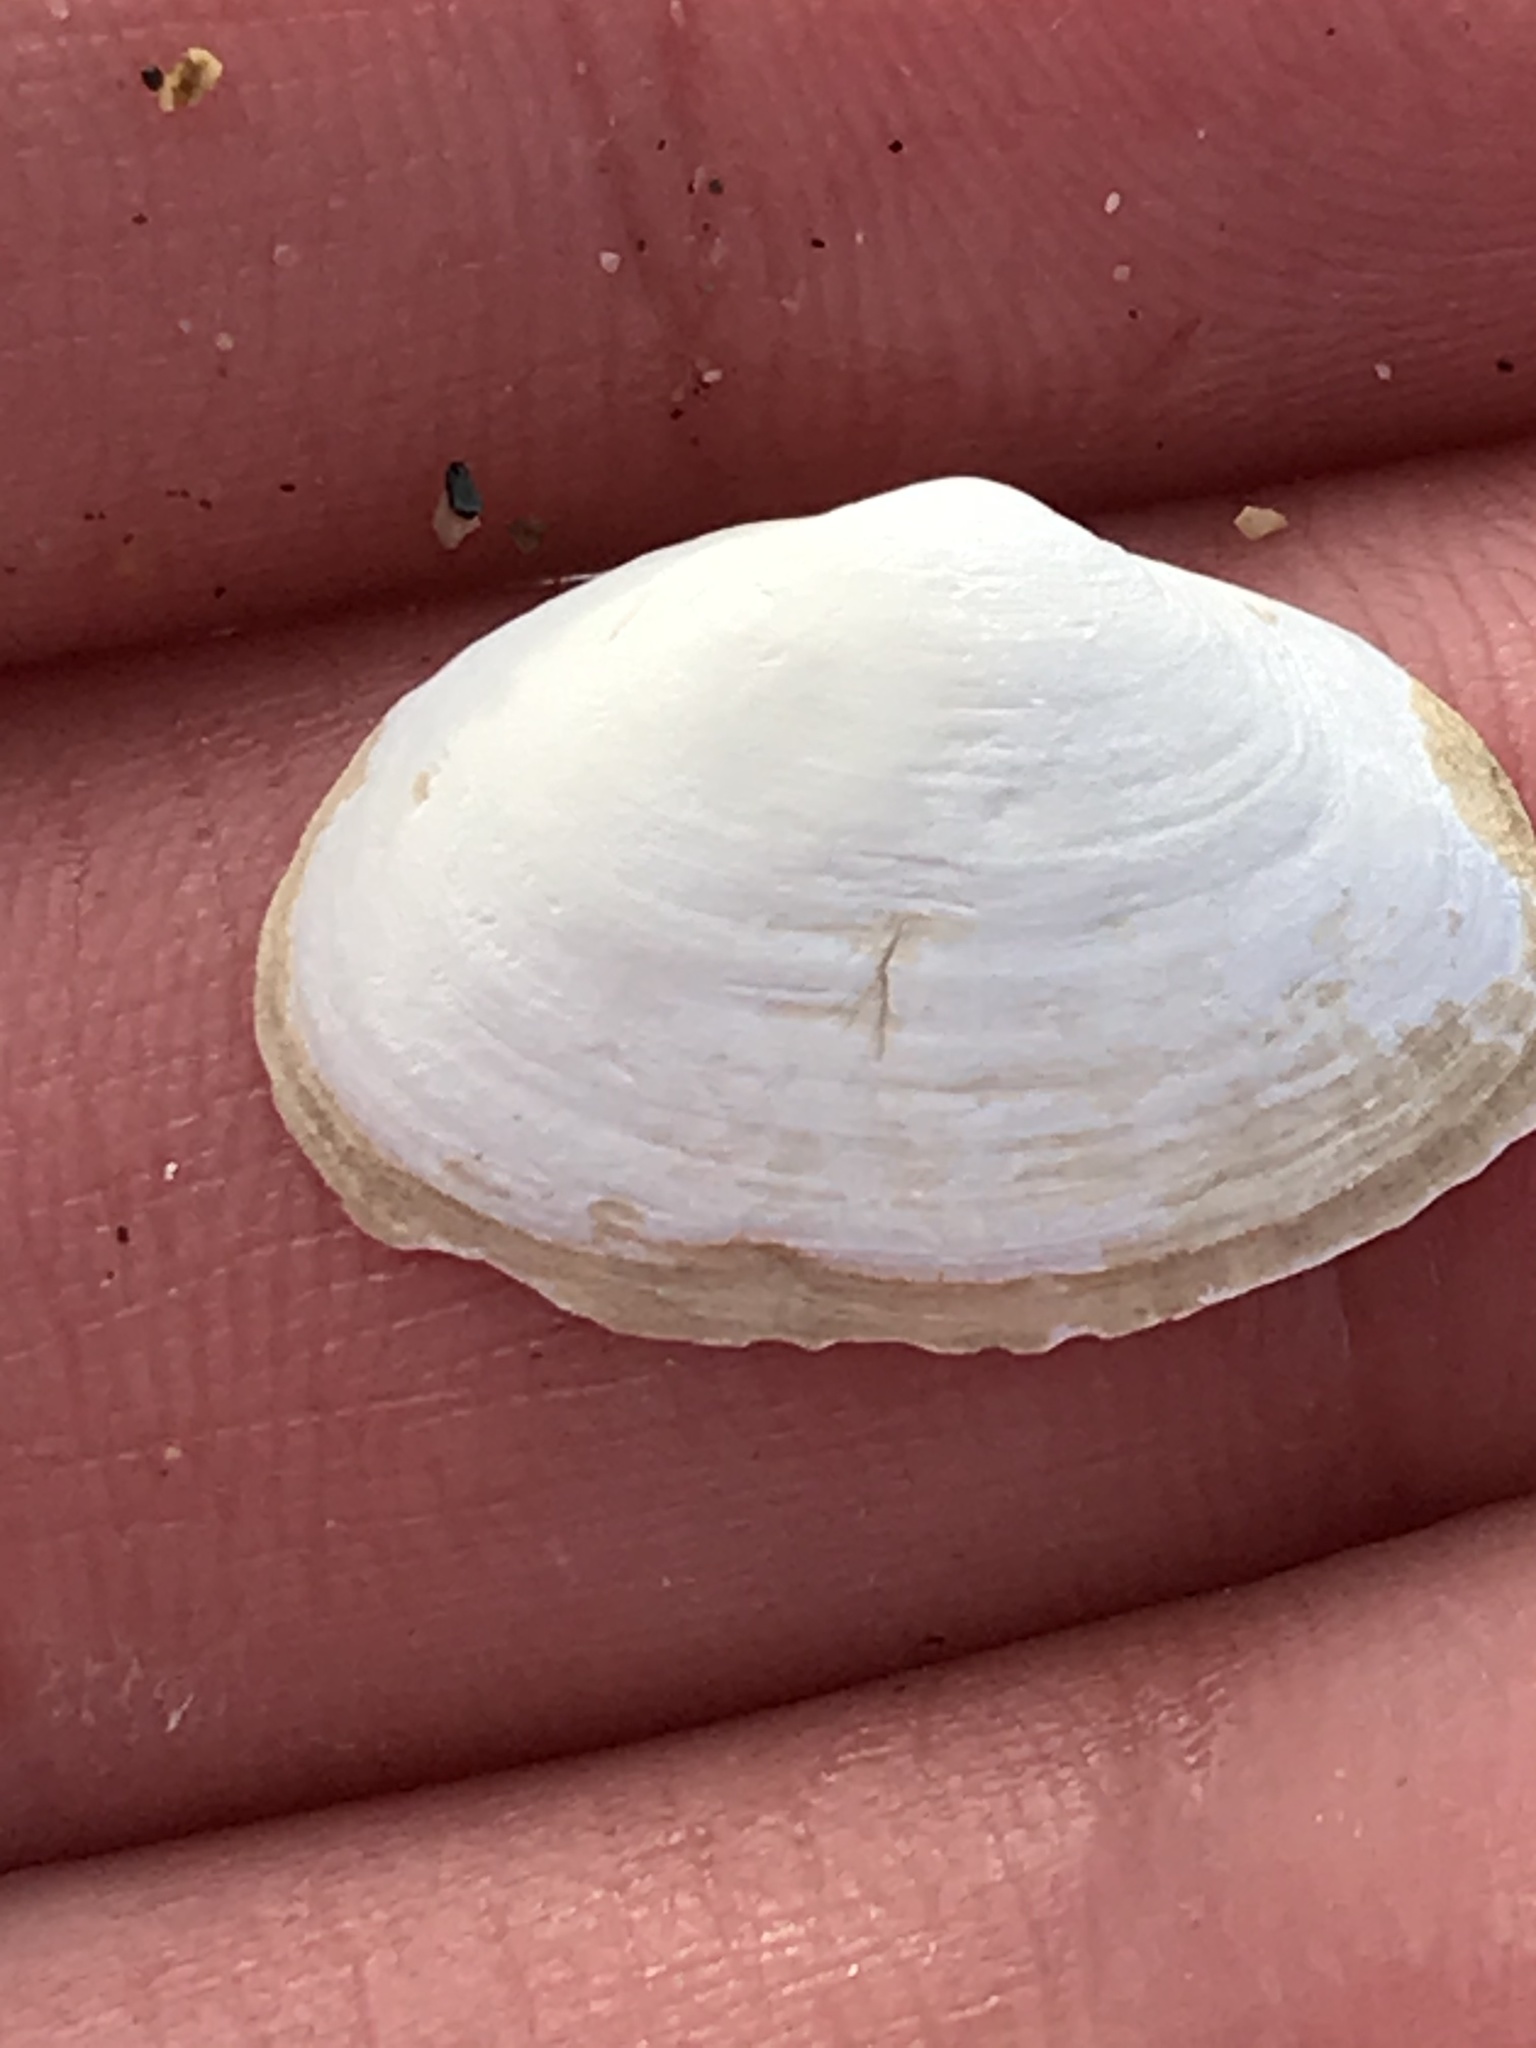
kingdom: Animalia
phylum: Mollusca
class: Bivalvia
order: Myida
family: Myidae
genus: Cryptomya
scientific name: Cryptomya californica
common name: California softshell clam
